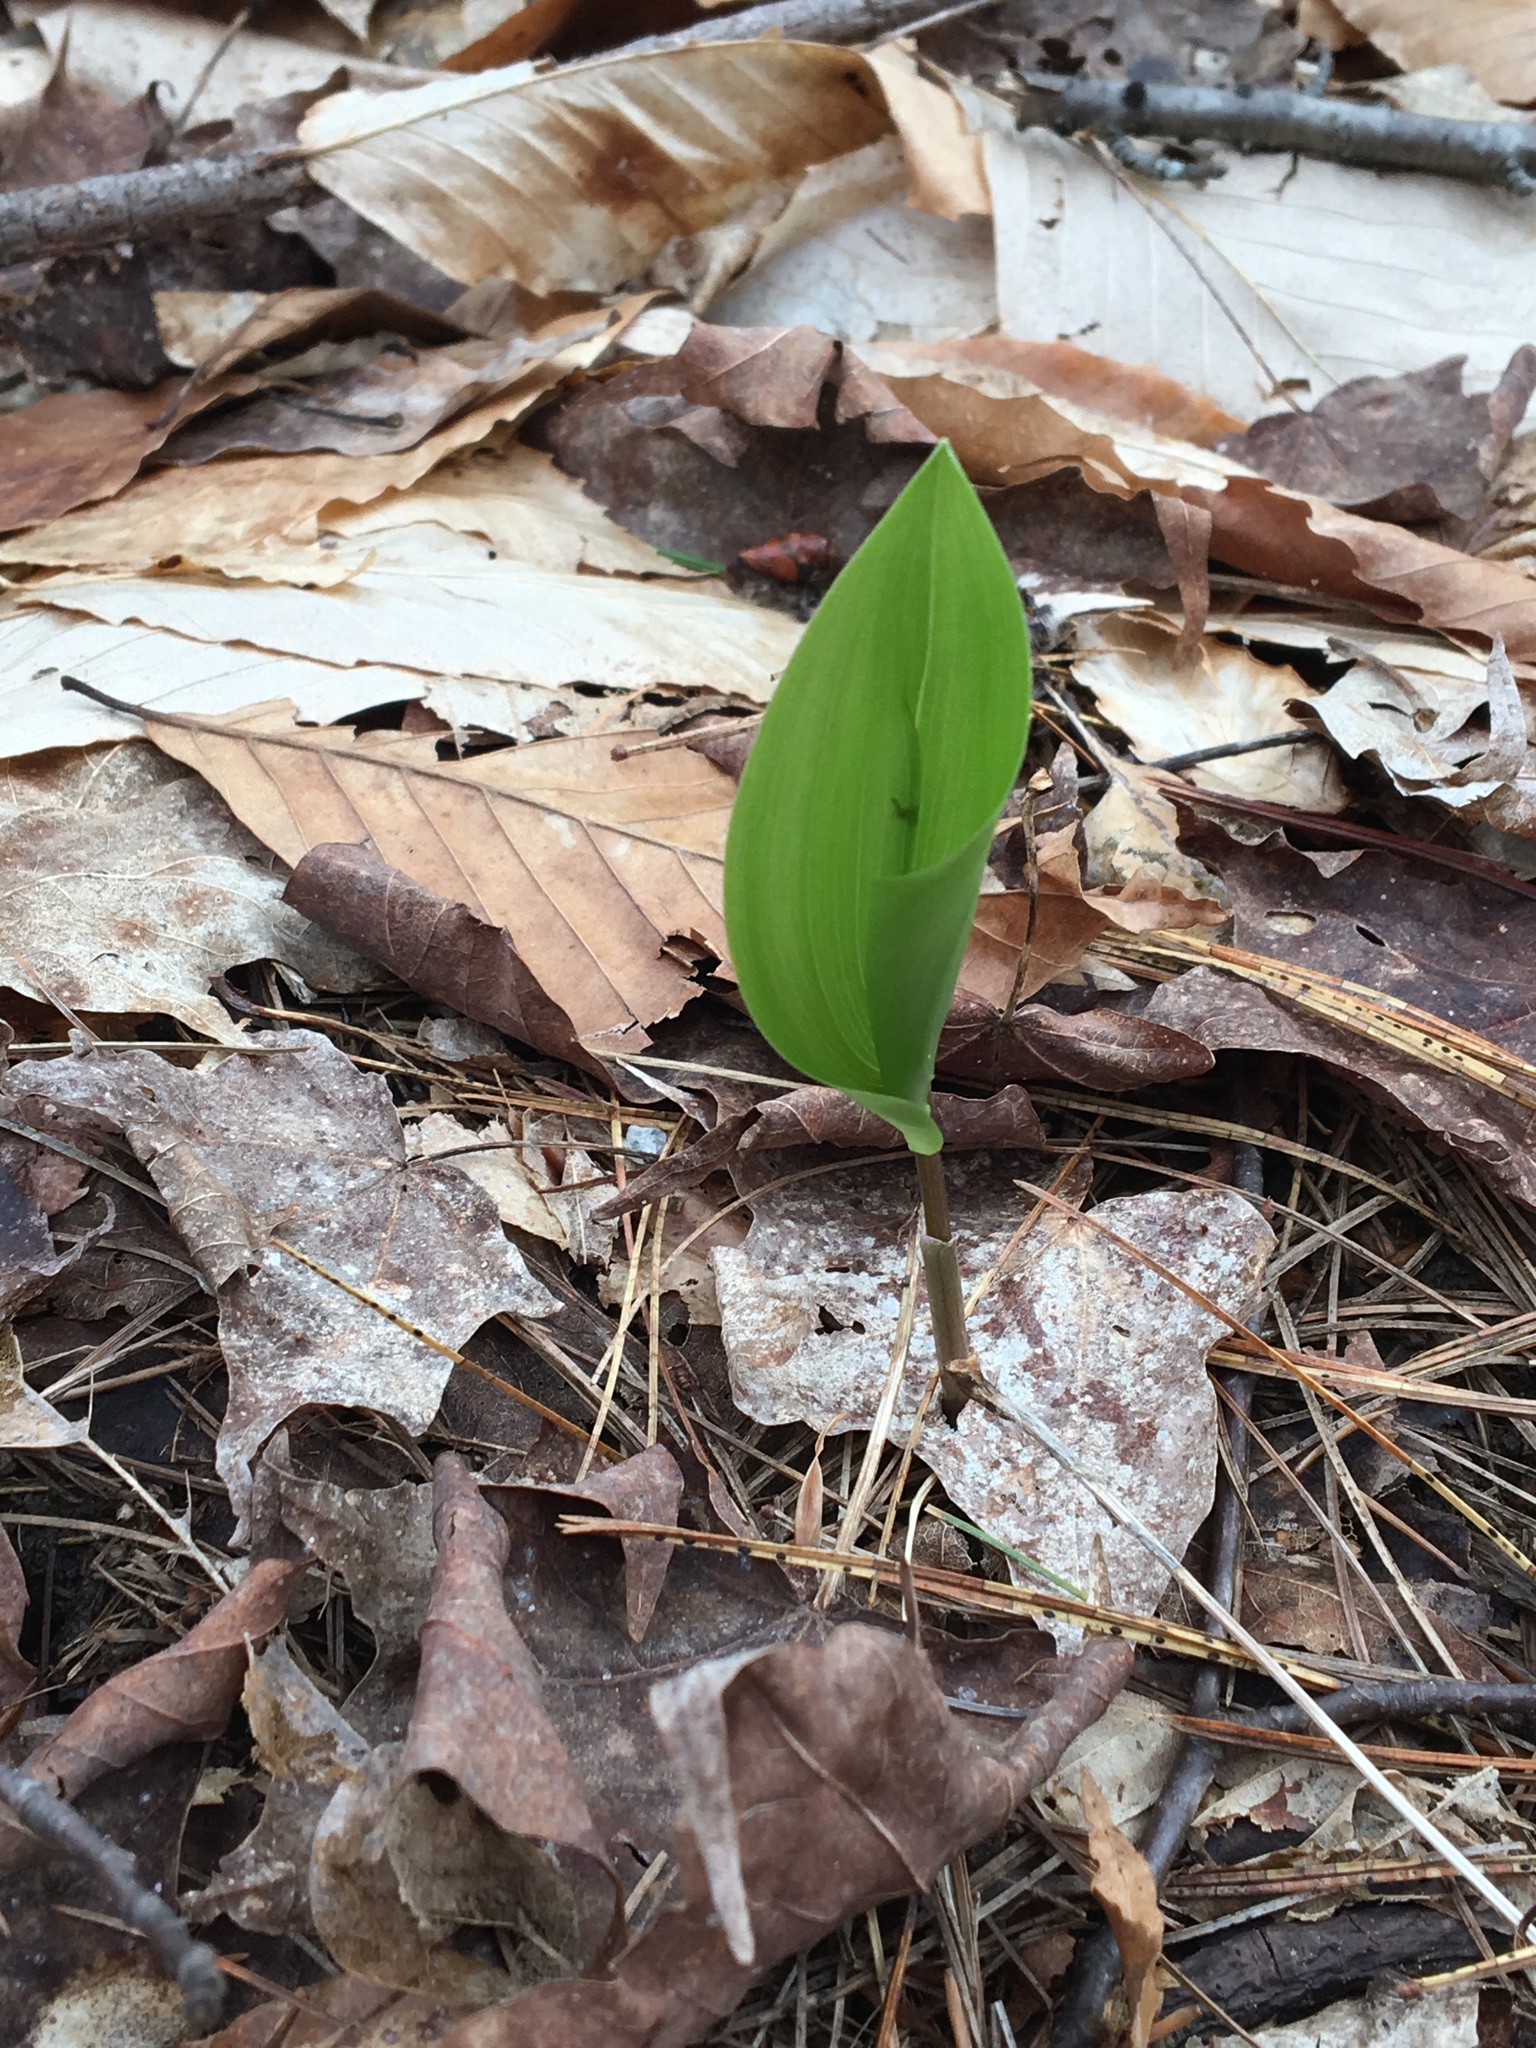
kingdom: Plantae
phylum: Tracheophyta
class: Liliopsida
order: Asparagales
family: Asparagaceae
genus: Maianthemum
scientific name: Maianthemum canadense
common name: False lily-of-the-valley
